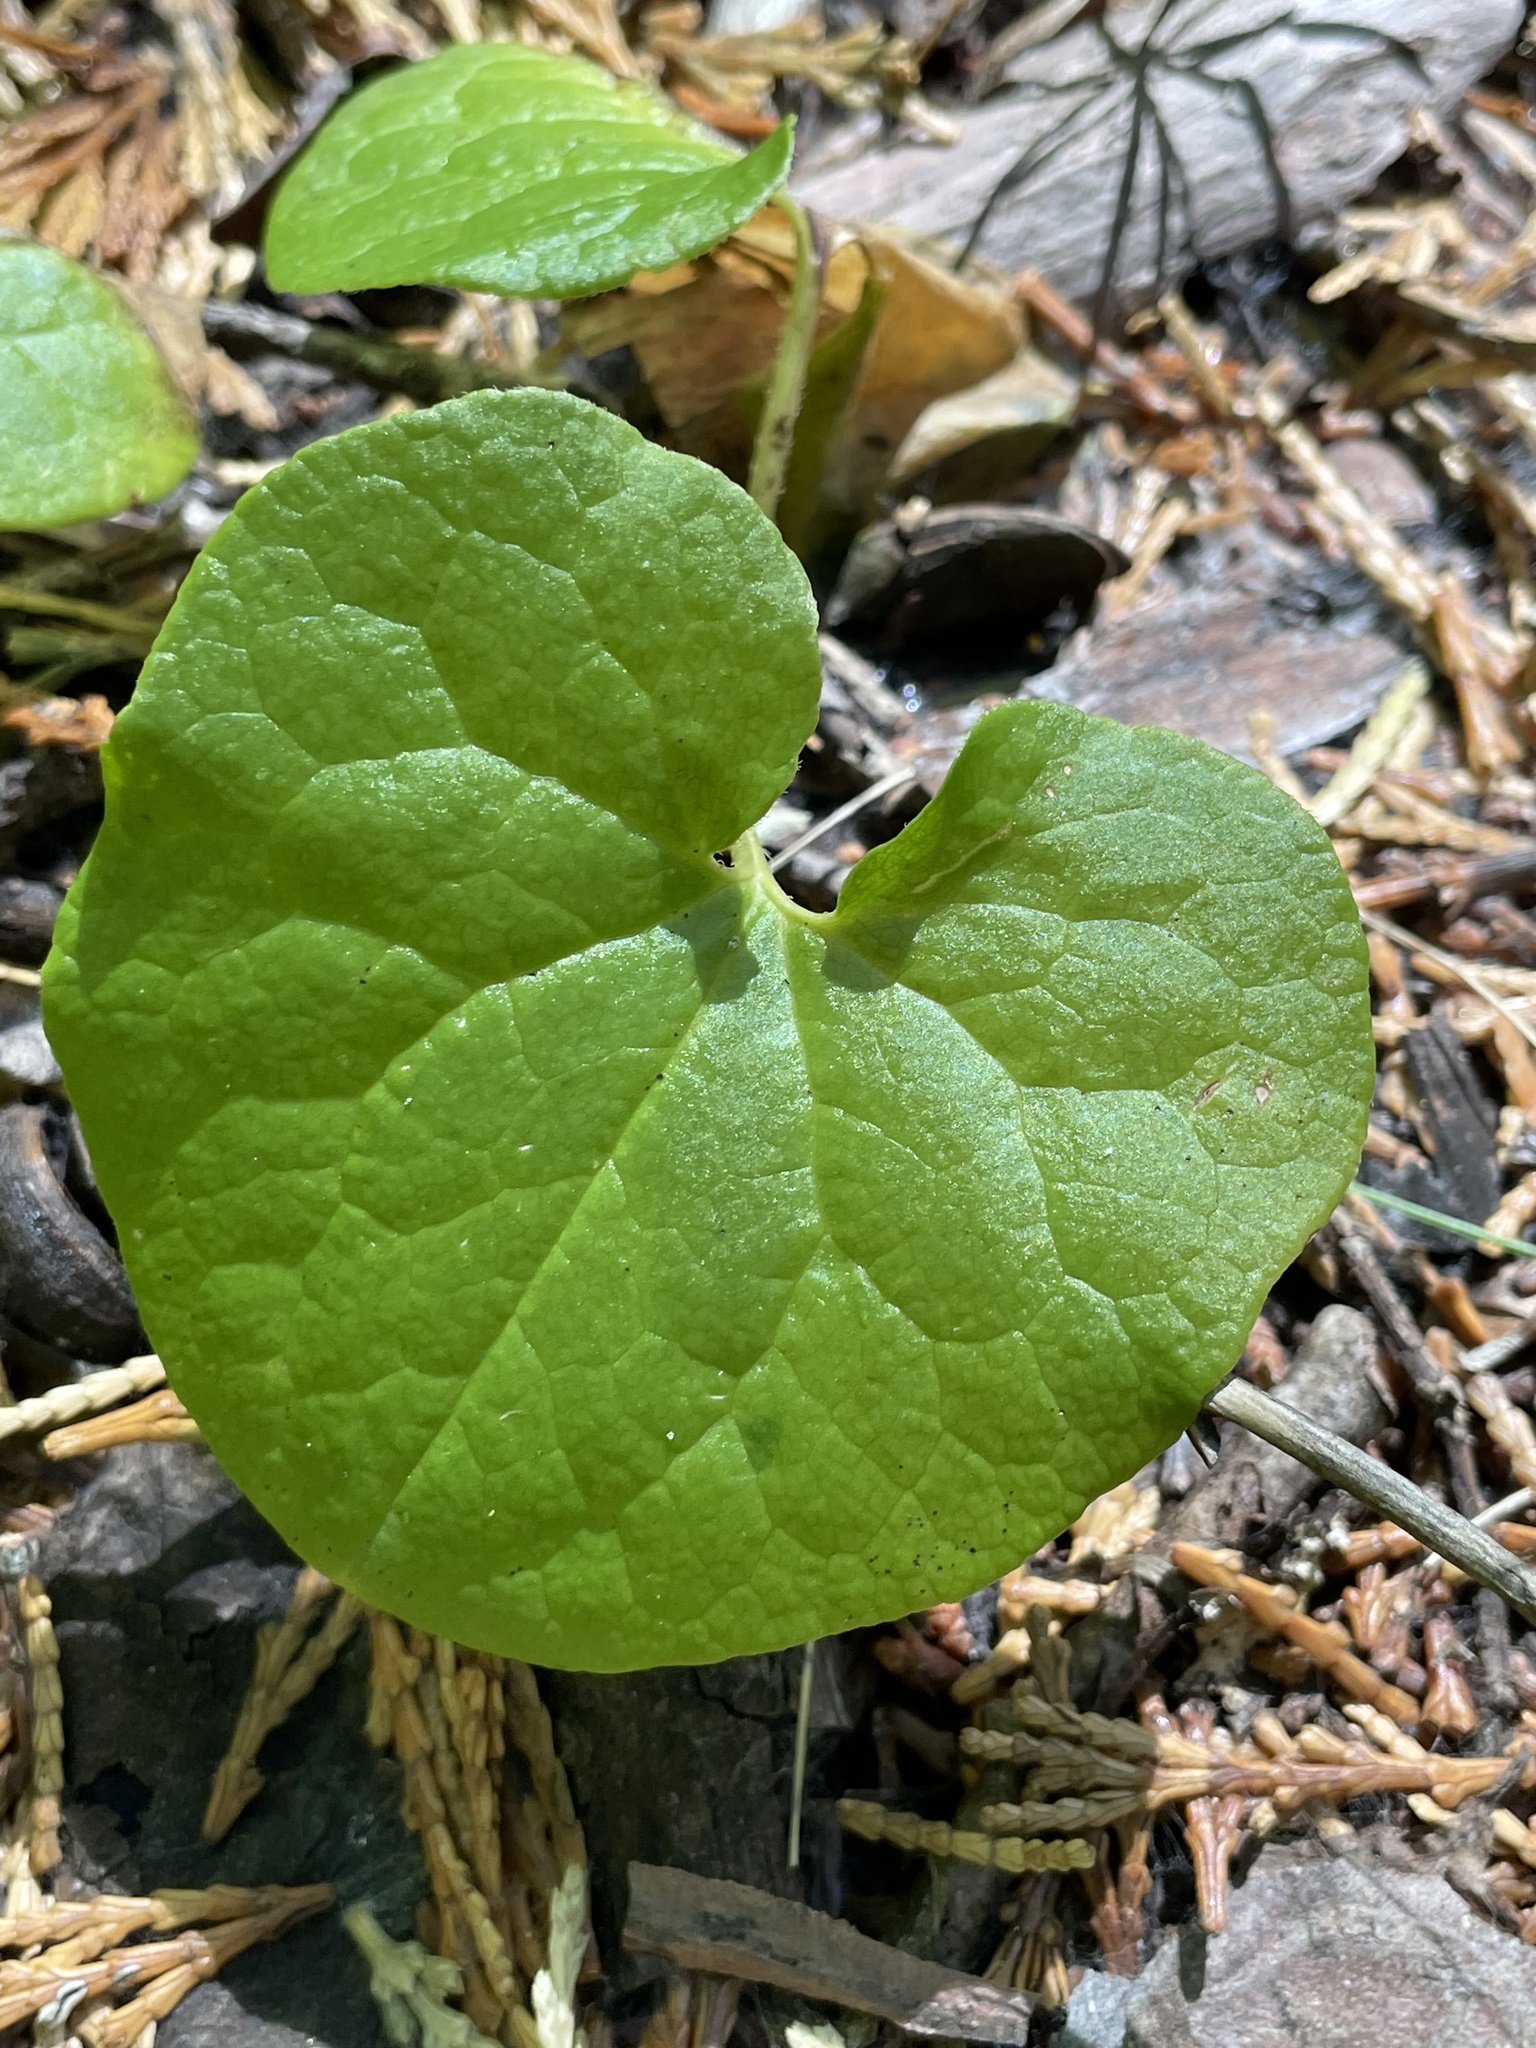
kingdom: Plantae
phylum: Tracheophyta
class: Magnoliopsida
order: Piperales
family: Aristolochiaceae
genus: Asarum
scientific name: Asarum lemmonii
